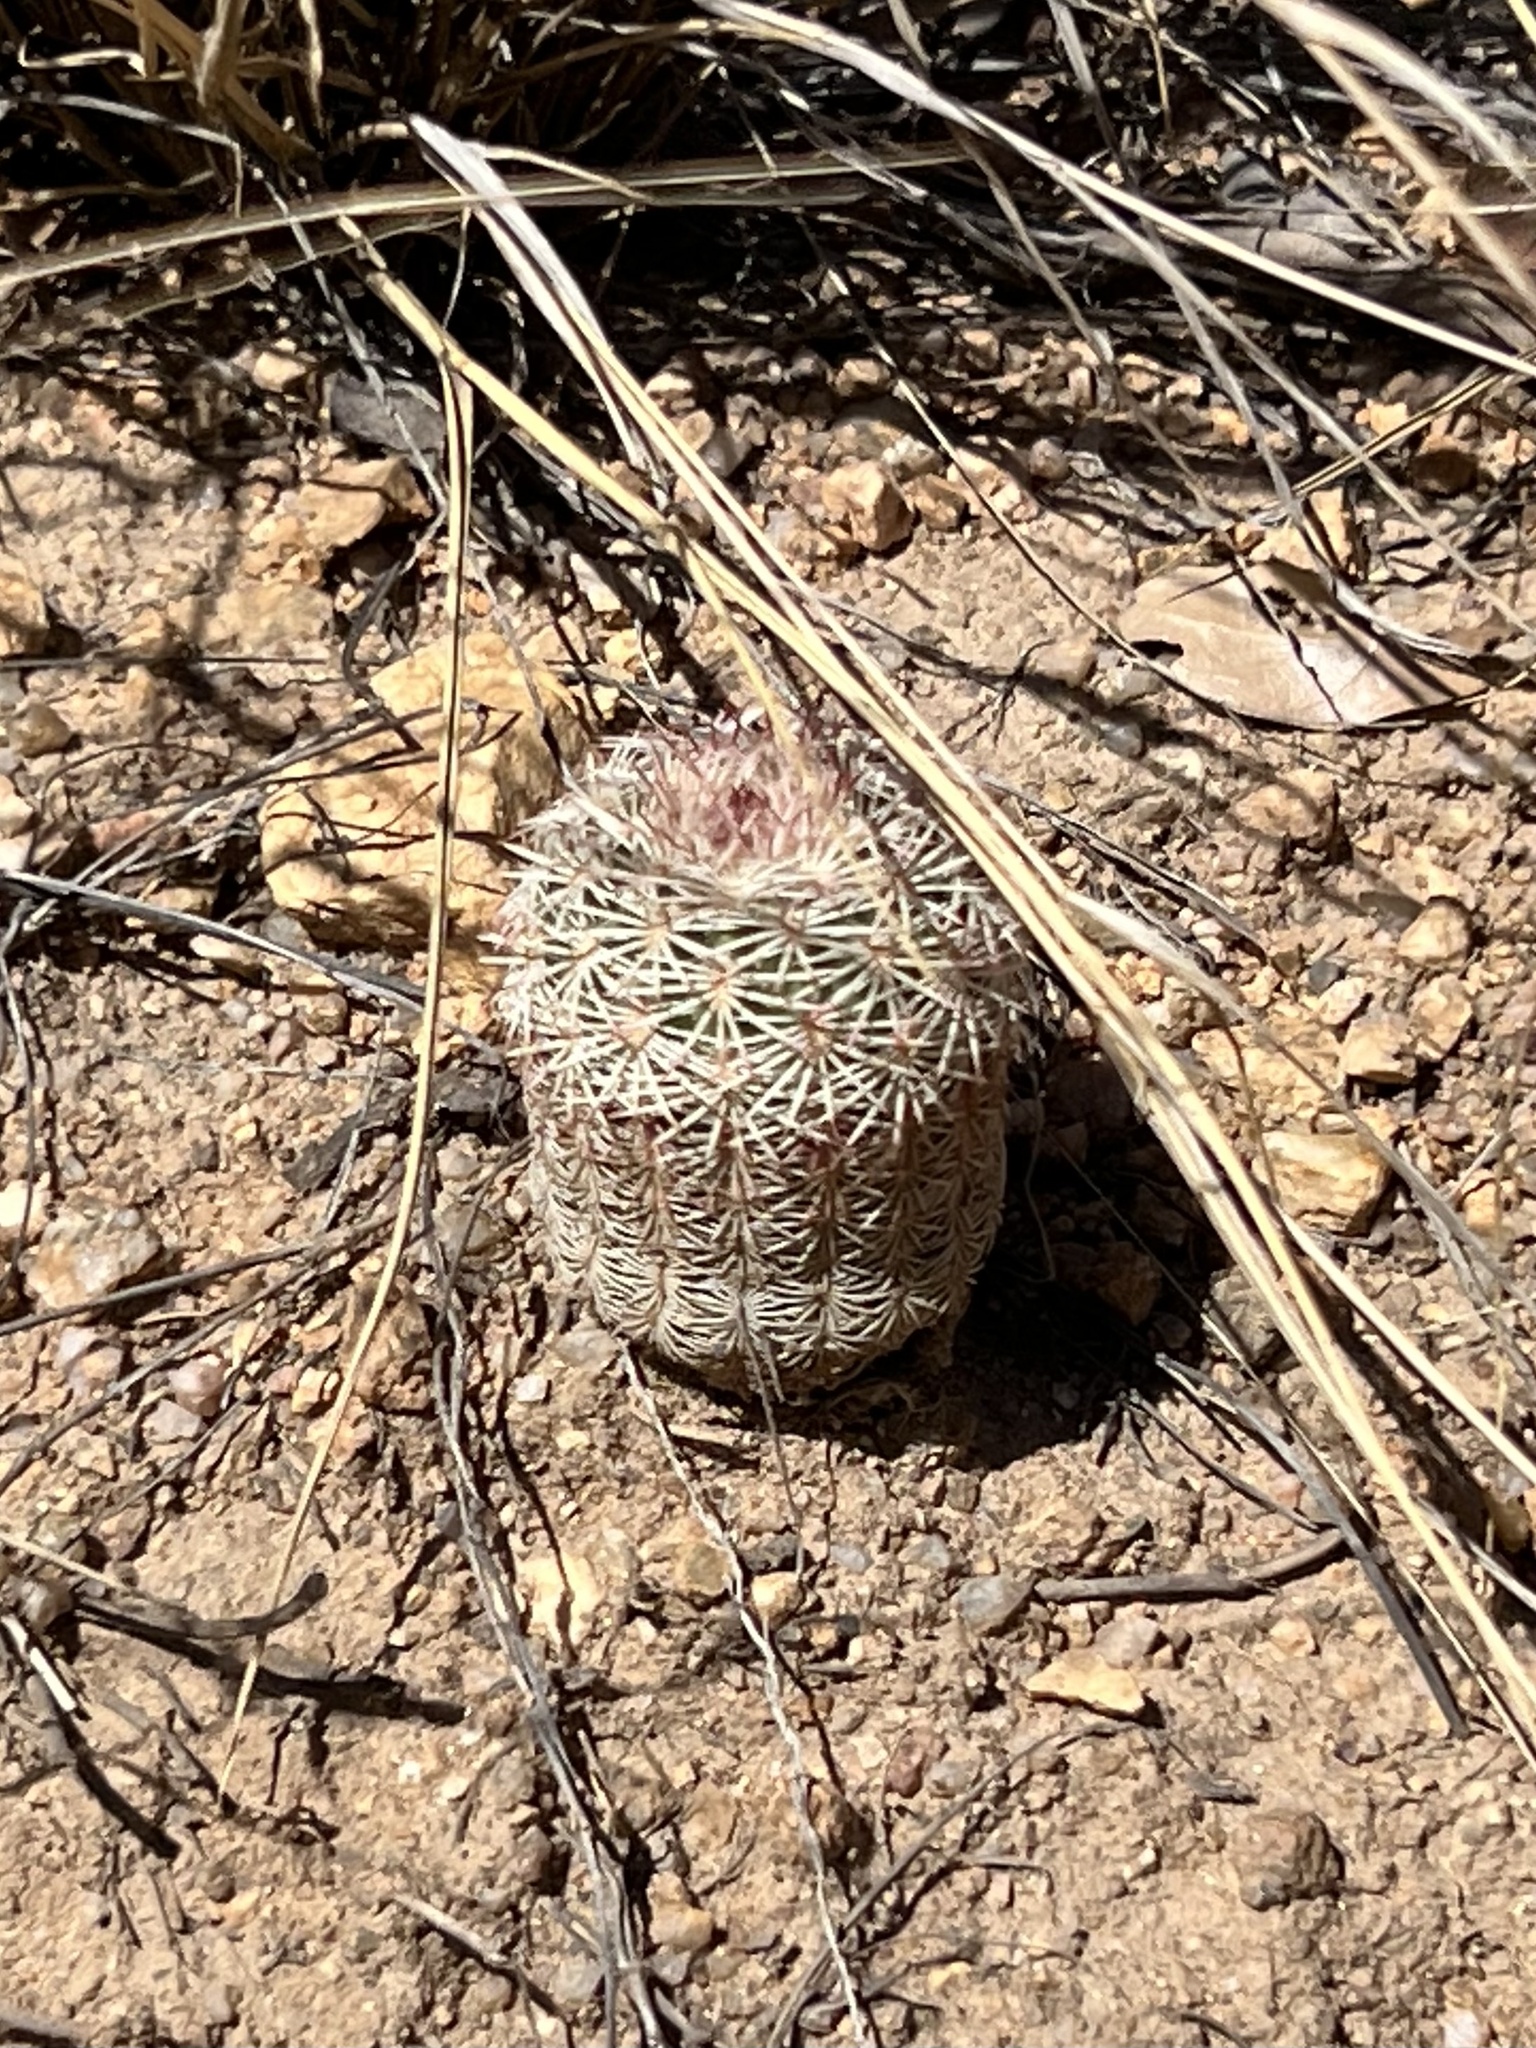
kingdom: Plantae
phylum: Tracheophyta
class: Magnoliopsida
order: Caryophyllales
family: Cactaceae
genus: Echinocereus
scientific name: Echinocereus rigidissimus
